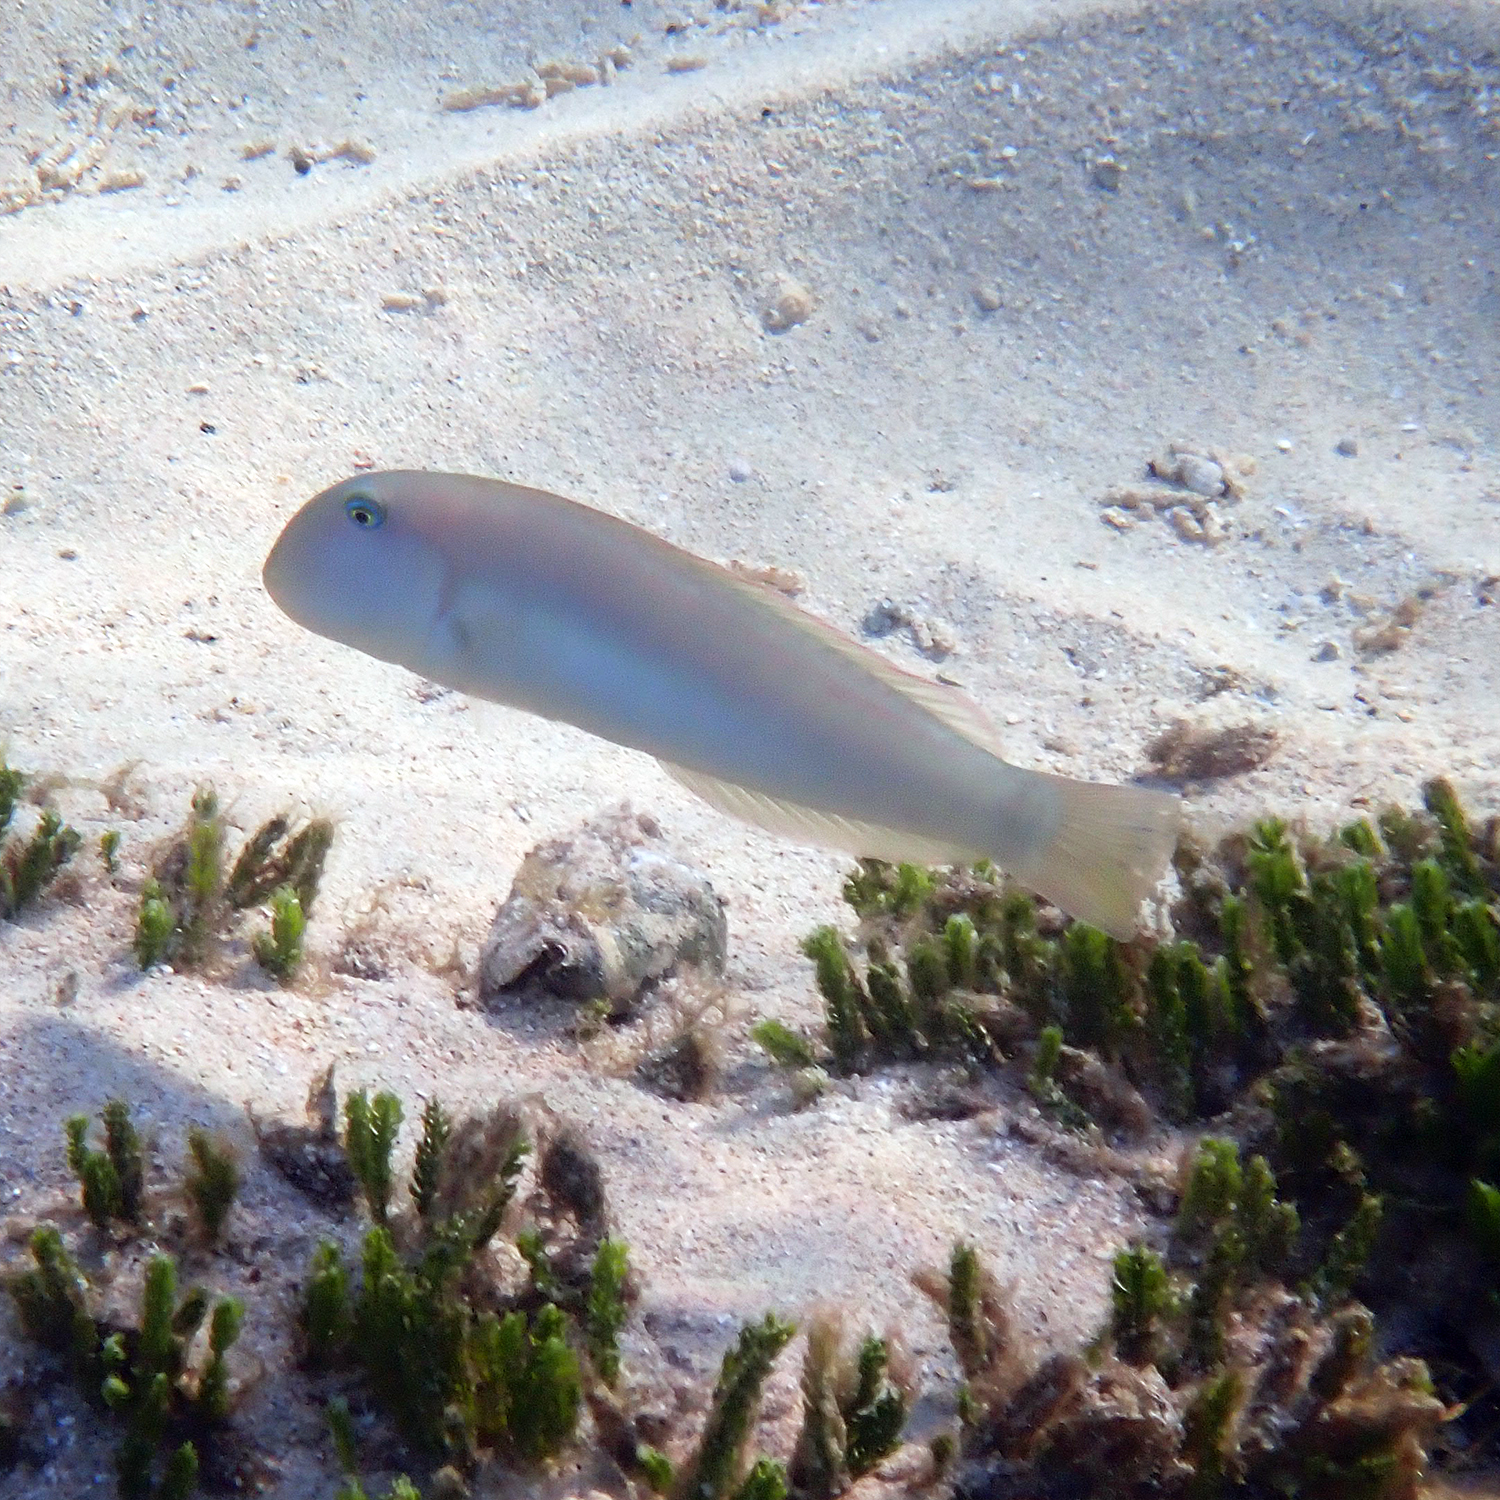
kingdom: Animalia
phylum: Chordata
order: Perciformes
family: Labridae
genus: Cymolutes
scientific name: Cymolutes praetextatus
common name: Knife razorfish
